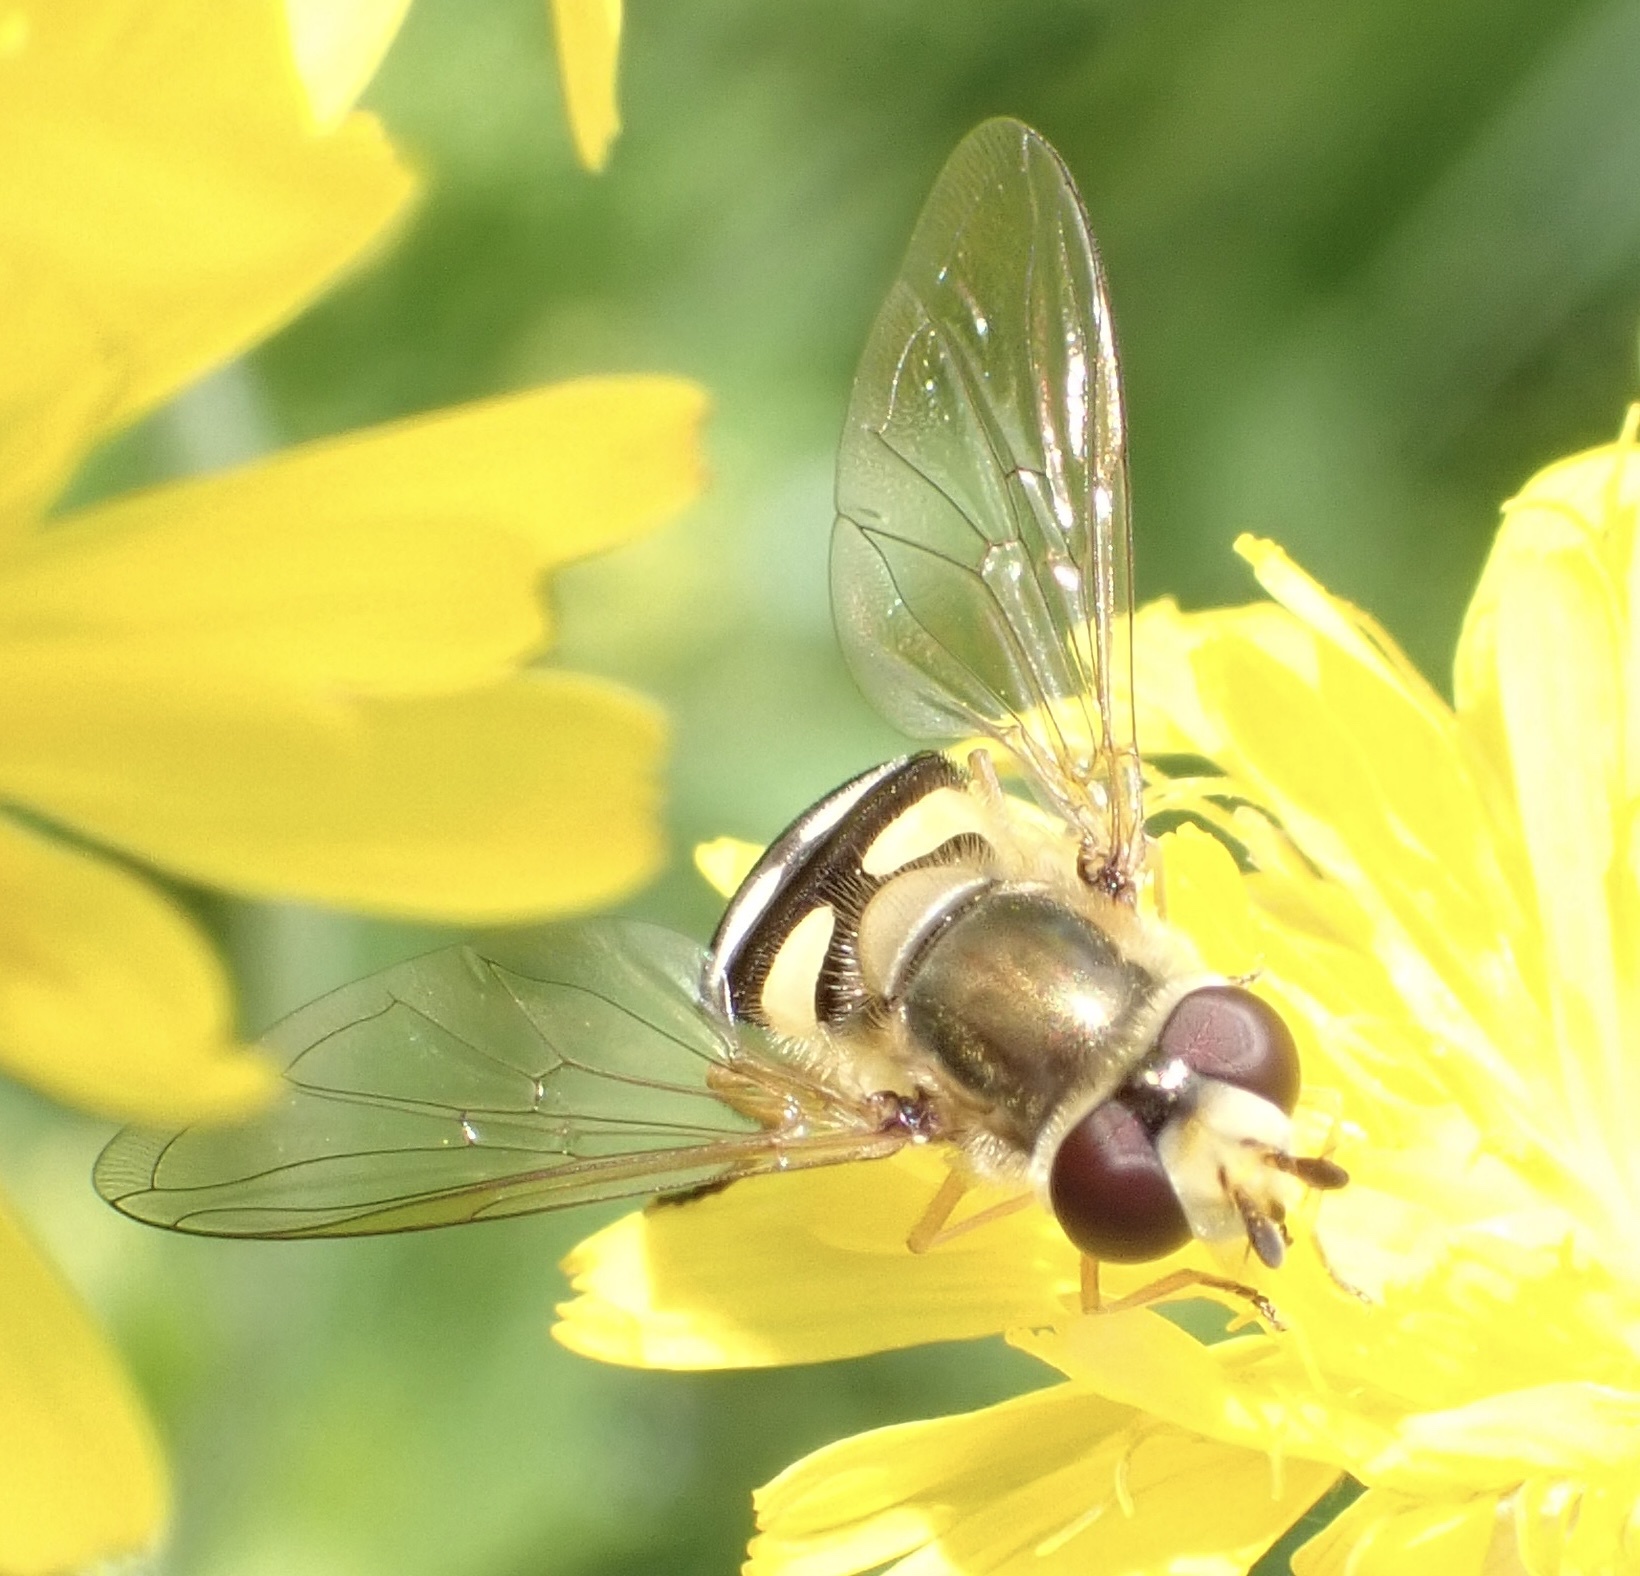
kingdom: Animalia
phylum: Arthropoda
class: Insecta
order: Diptera
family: Syrphidae
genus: Eupeodes
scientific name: Eupeodes corollae
